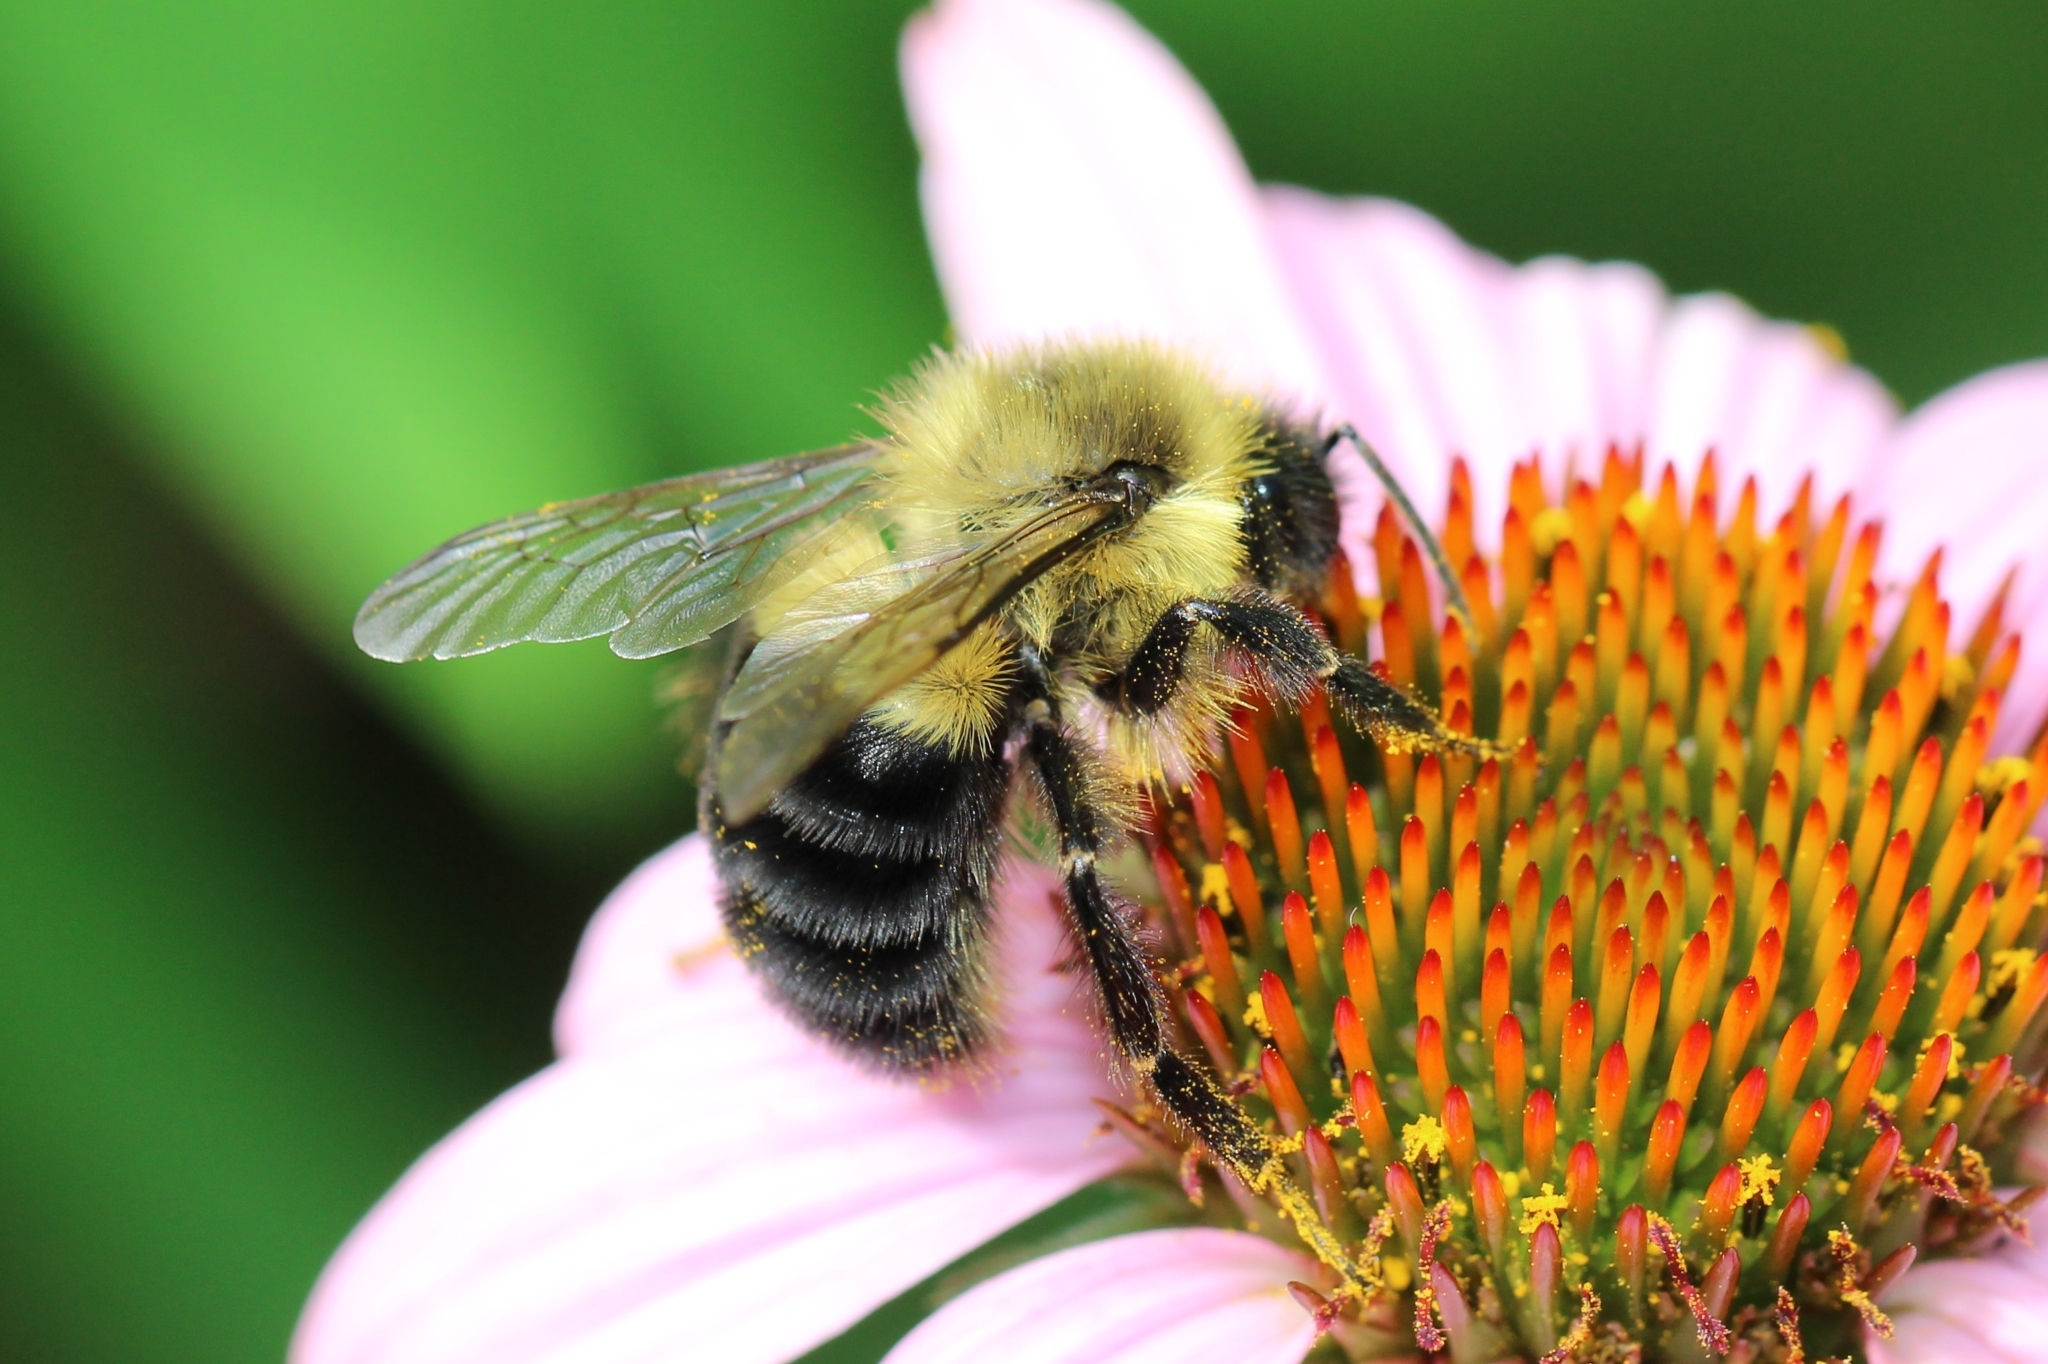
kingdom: Animalia
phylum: Arthropoda
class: Insecta
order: Hymenoptera
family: Apidae
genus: Bombus
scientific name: Bombus impatiens
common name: Common eastern bumble bee
